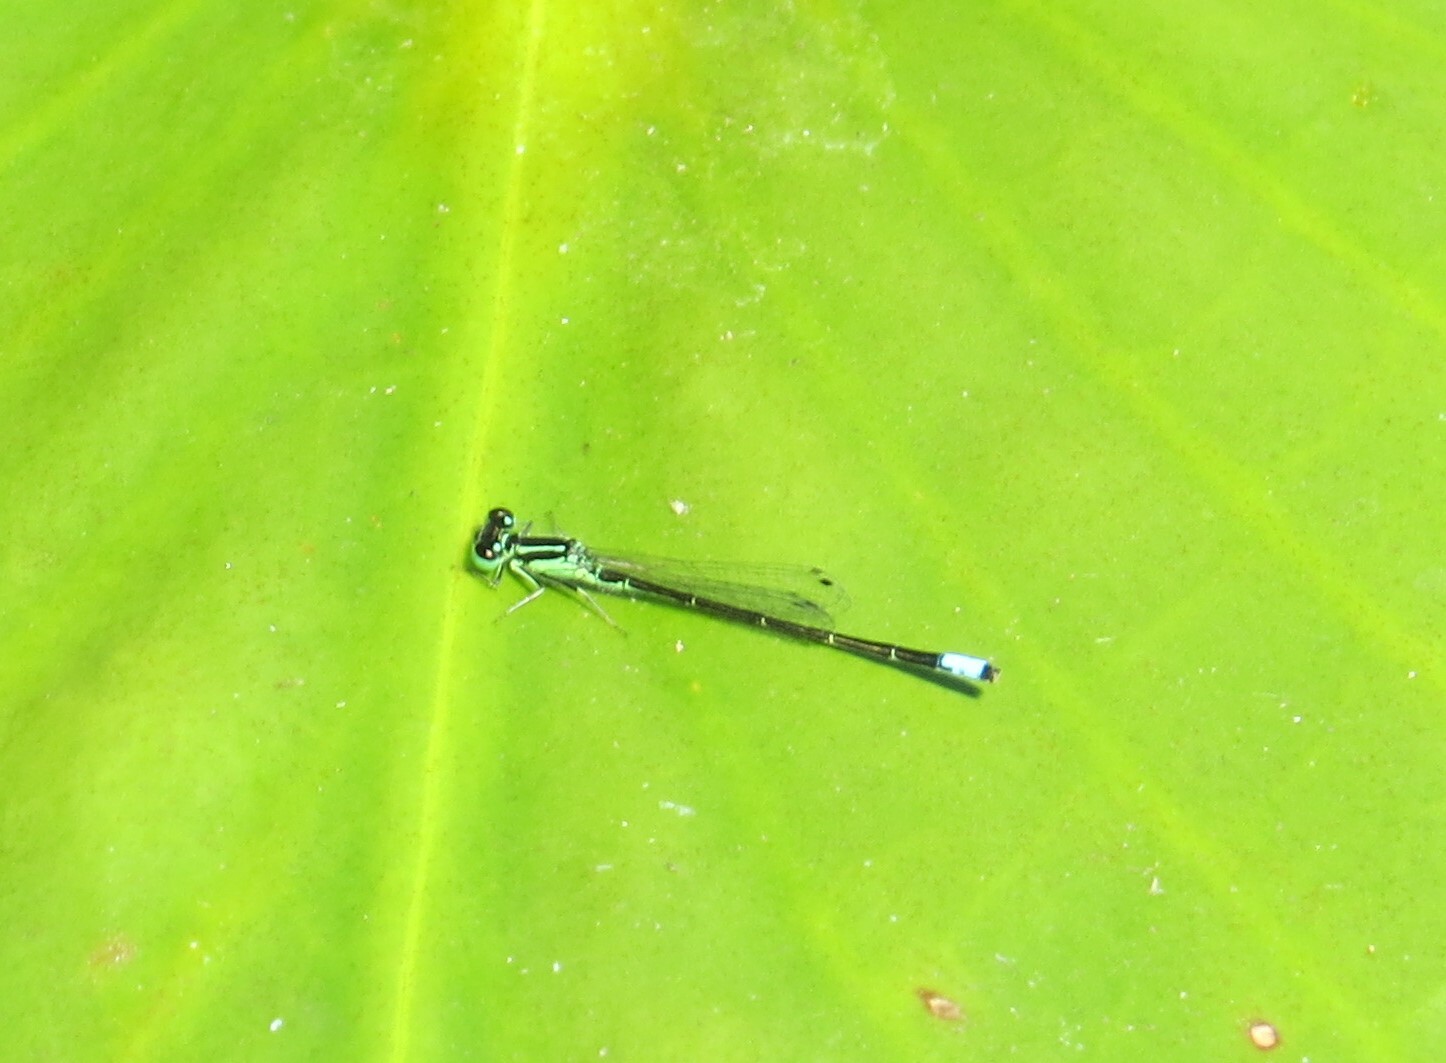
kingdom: Animalia
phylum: Arthropoda
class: Insecta
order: Odonata
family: Coenagrionidae
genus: Ischnura
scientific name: Ischnura verticalis
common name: Eastern forktail
